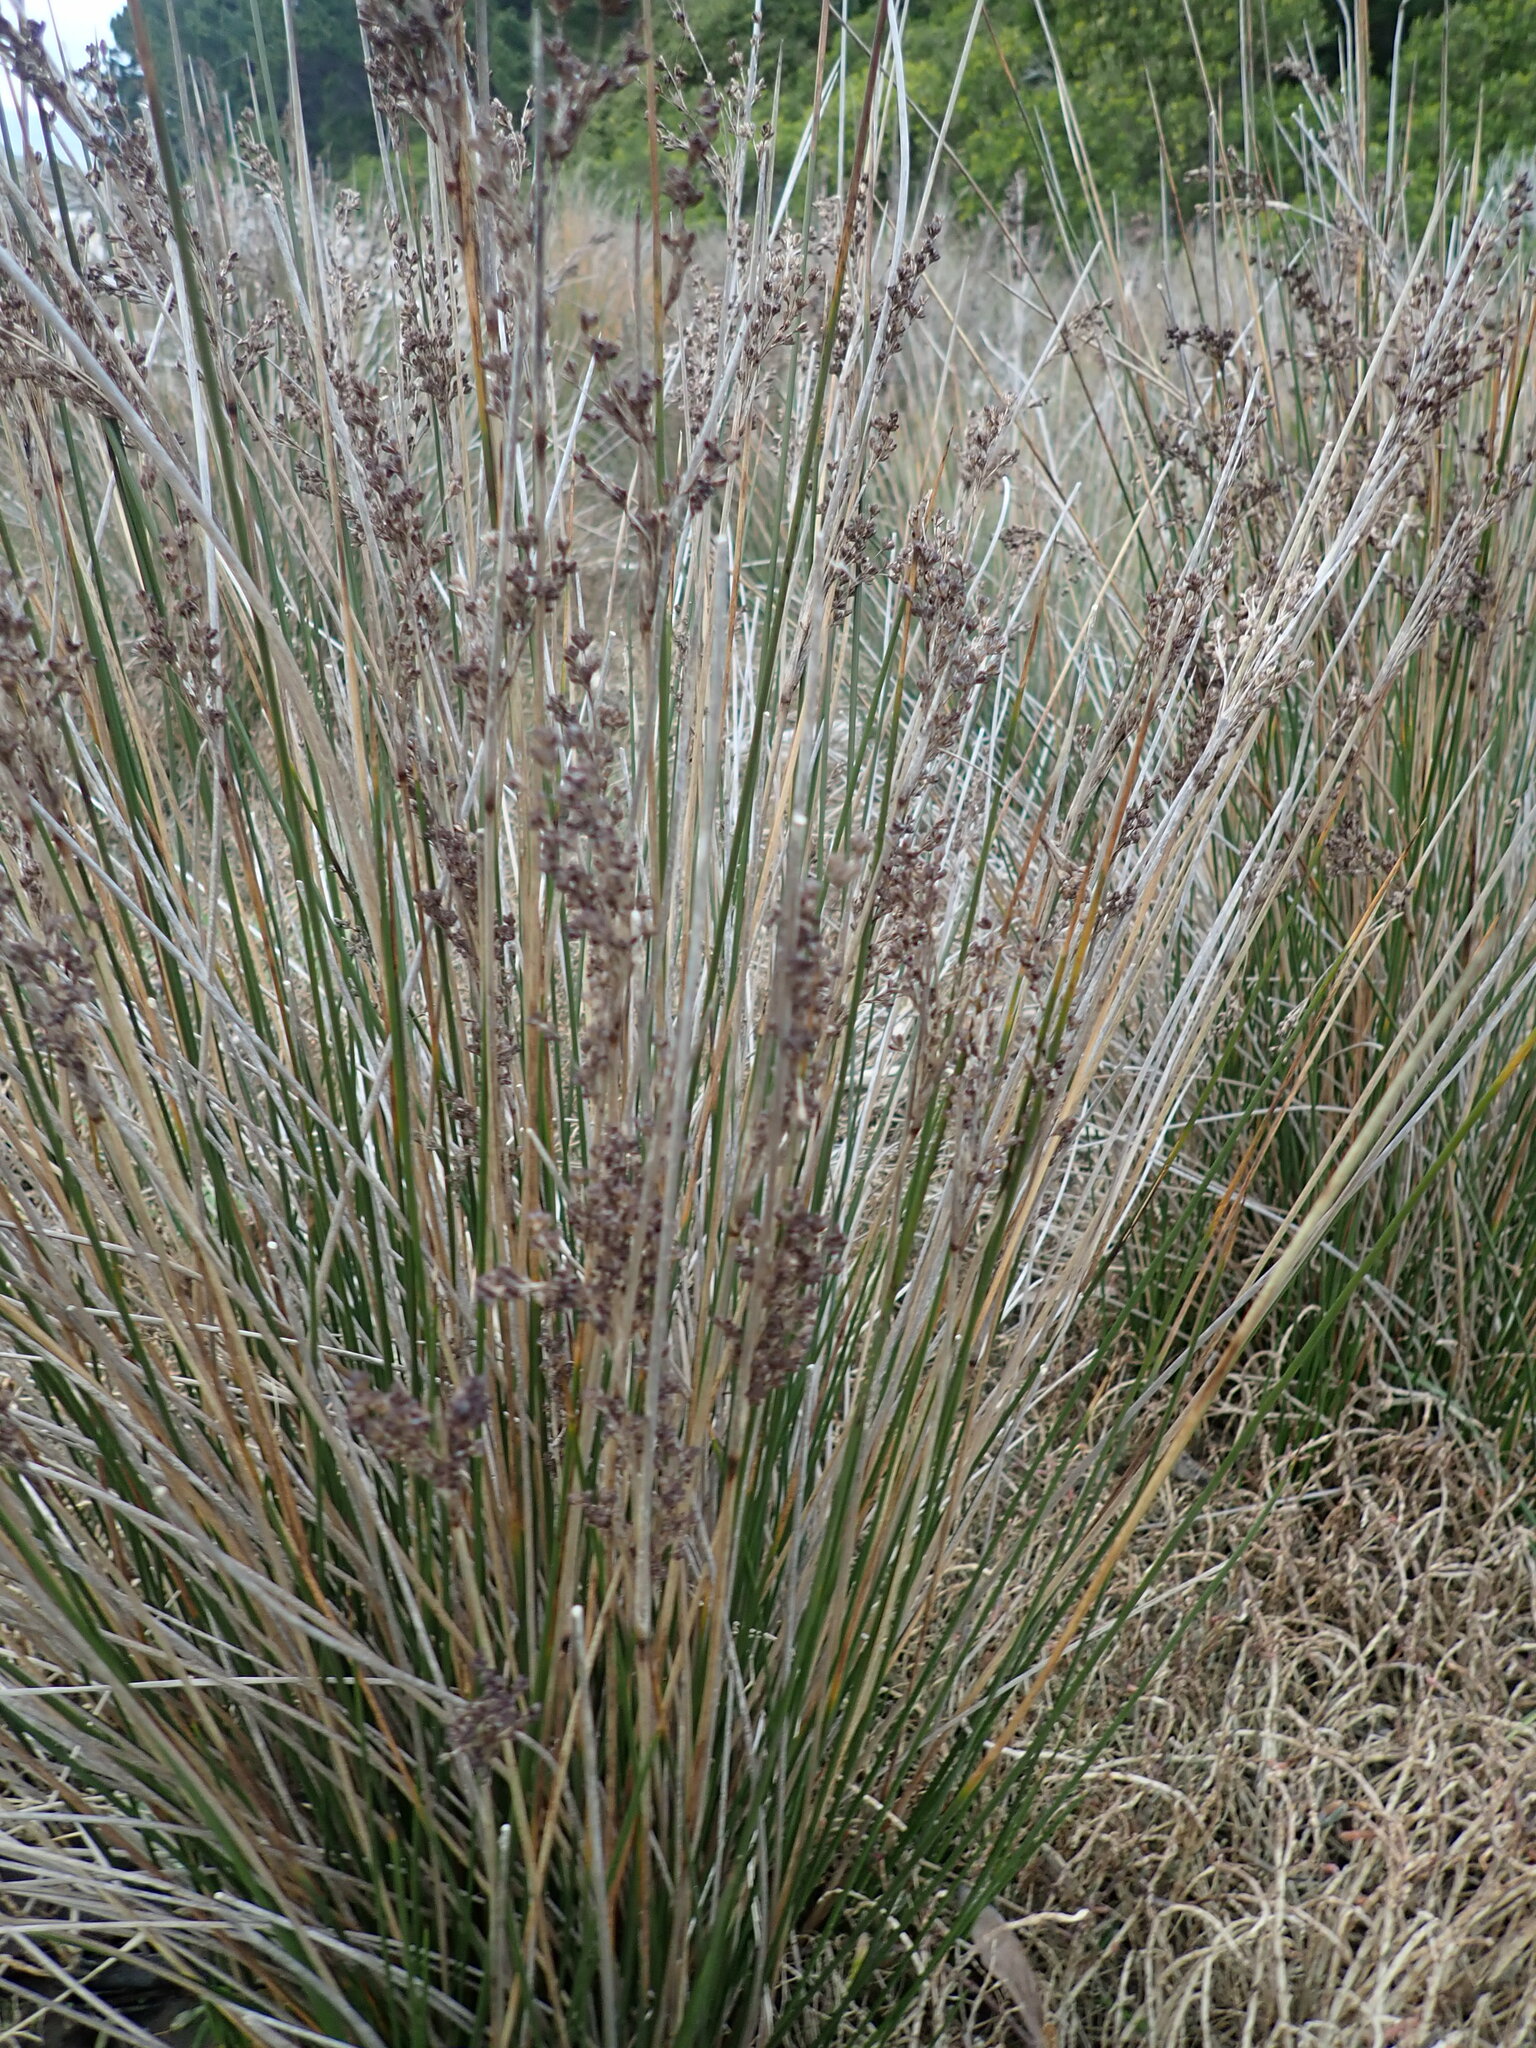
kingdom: Plantae
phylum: Tracheophyta
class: Liliopsida
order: Poales
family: Juncaceae
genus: Juncus
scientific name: Juncus kraussii
